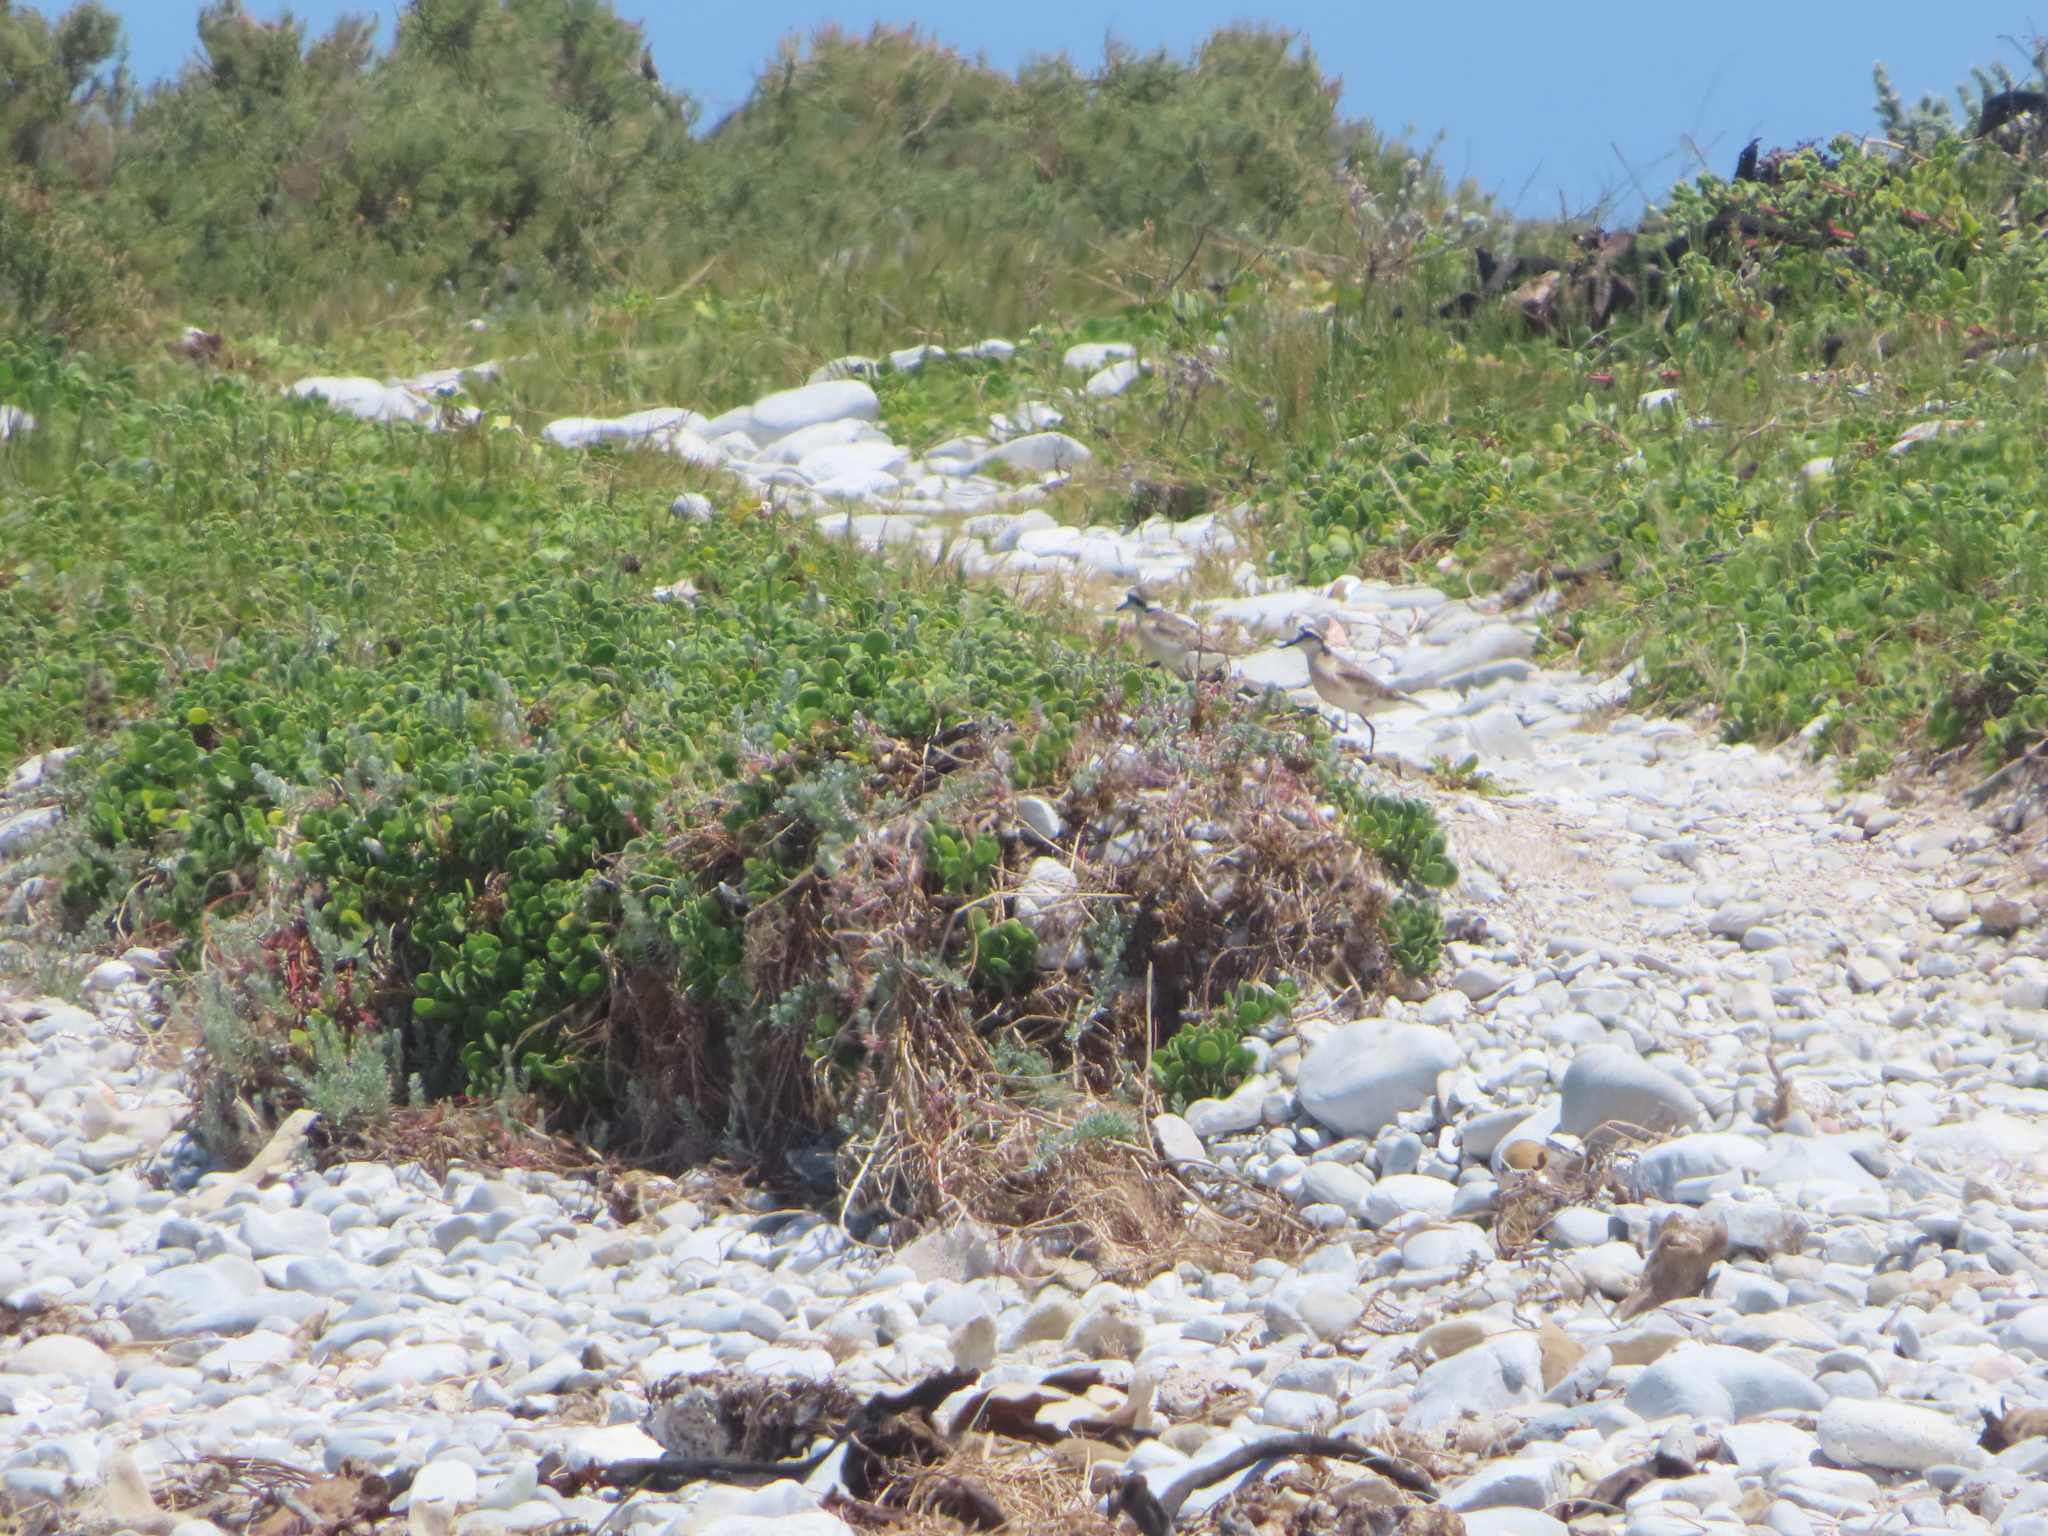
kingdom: Animalia
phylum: Chordata
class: Aves
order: Charadriiformes
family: Charadriidae
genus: Anarhynchus
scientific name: Anarhynchus
